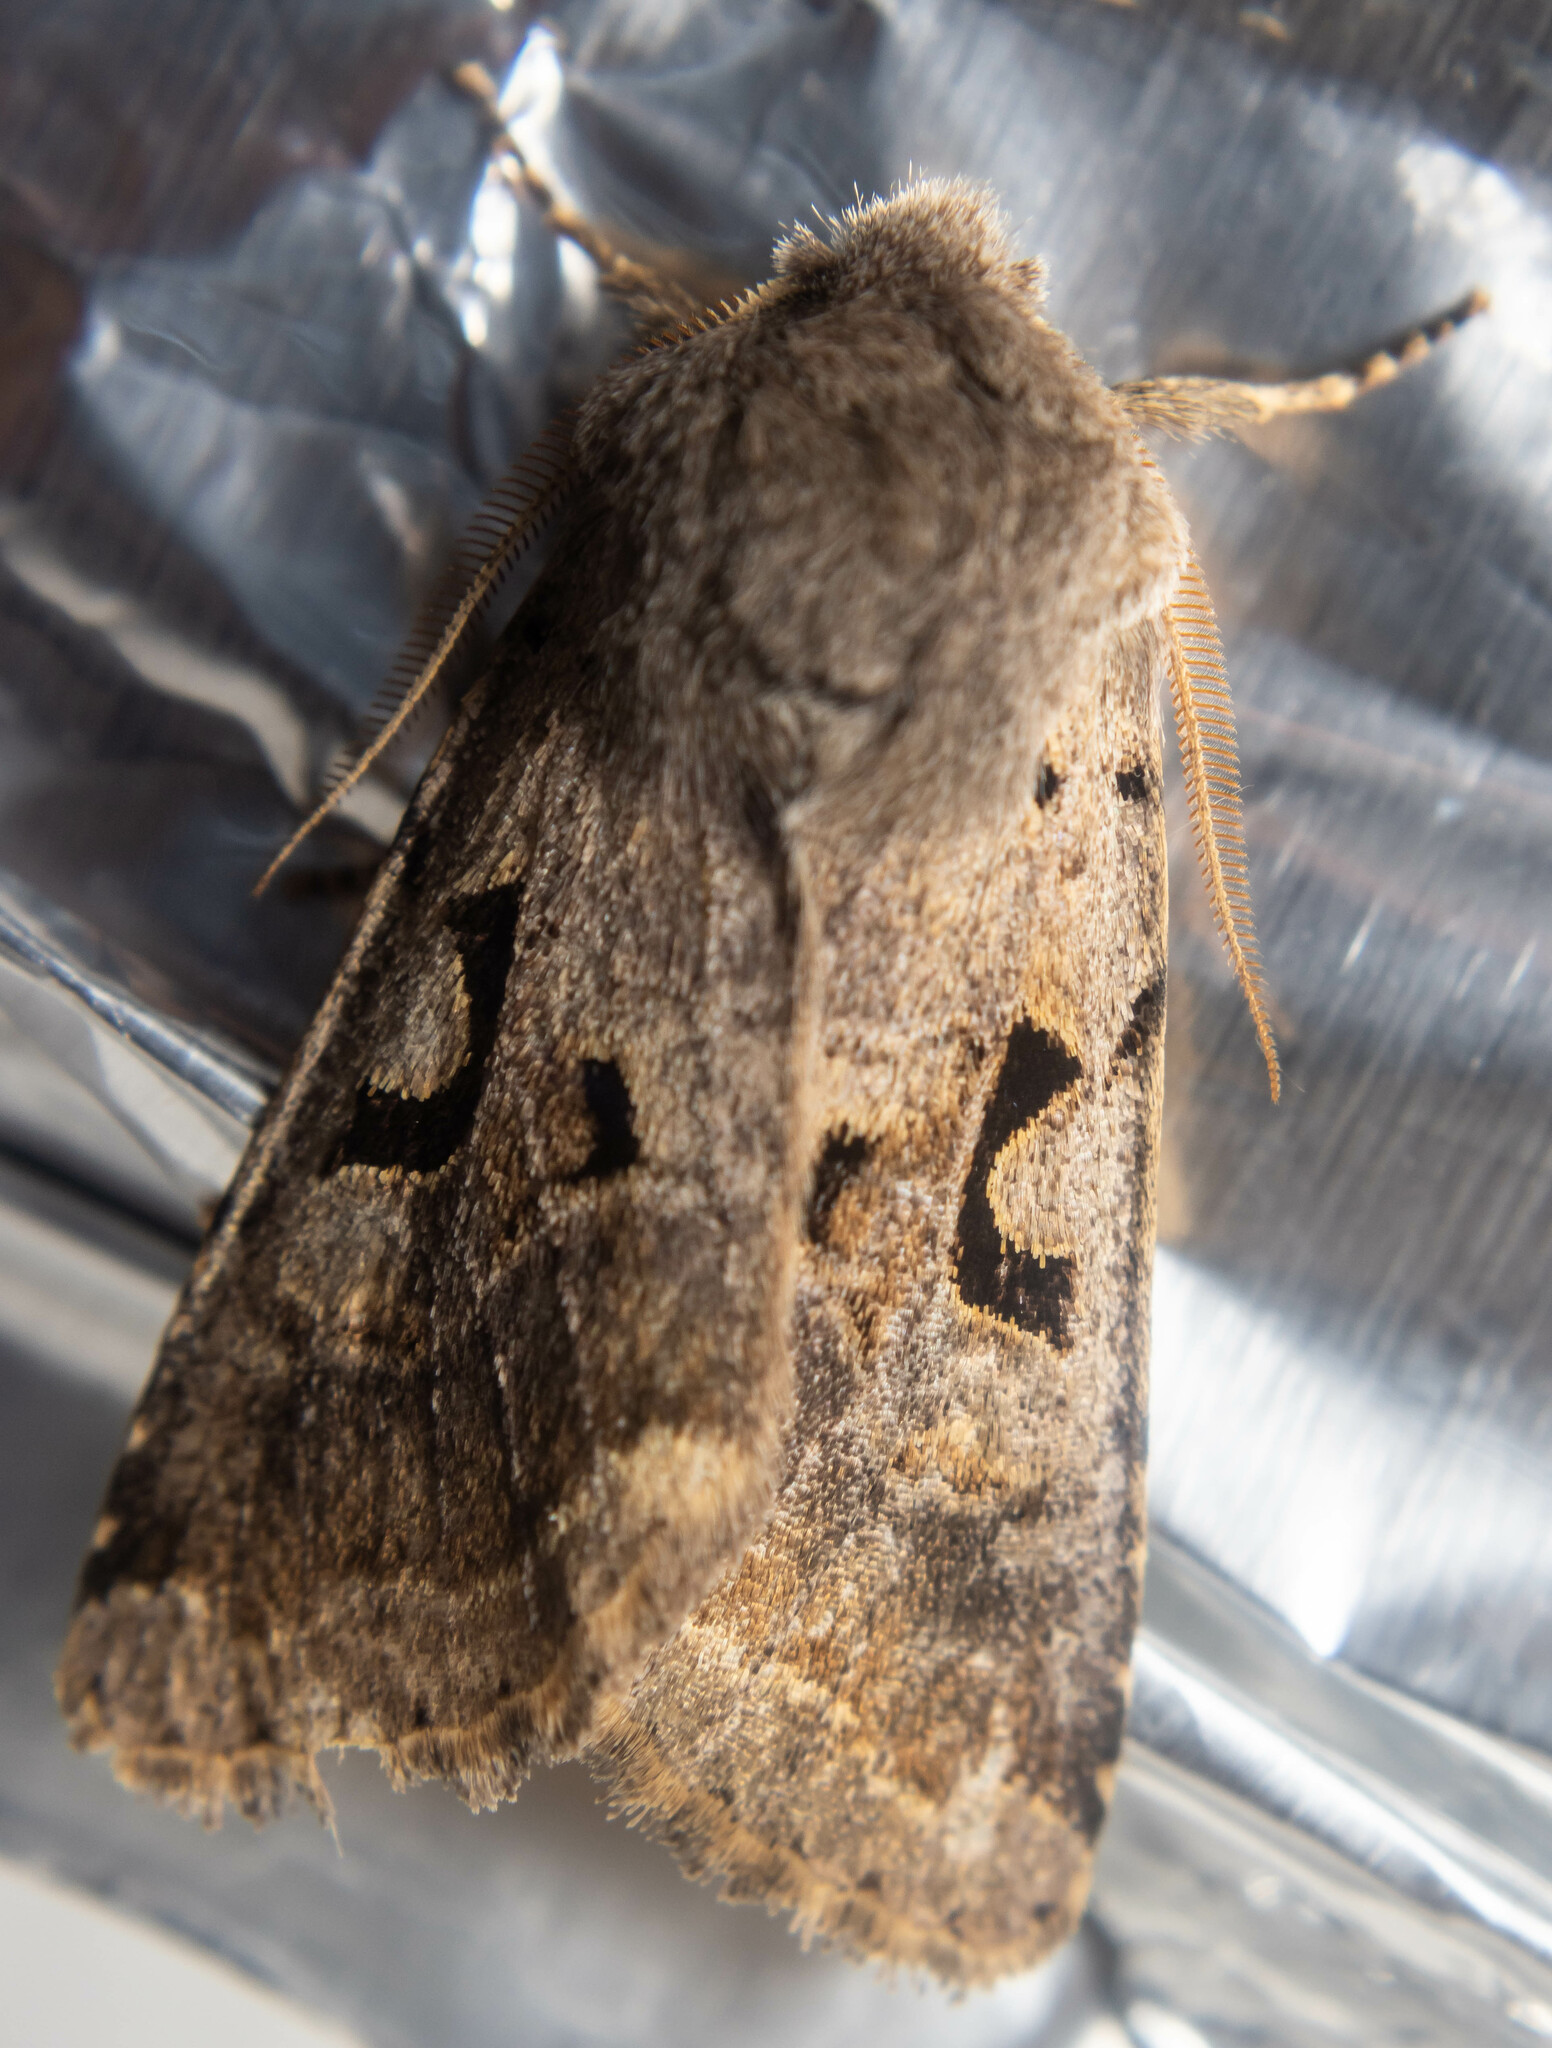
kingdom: Animalia
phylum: Arthropoda
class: Insecta
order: Lepidoptera
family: Noctuidae
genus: Orthosia
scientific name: Orthosia gothica
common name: Hebrew character
